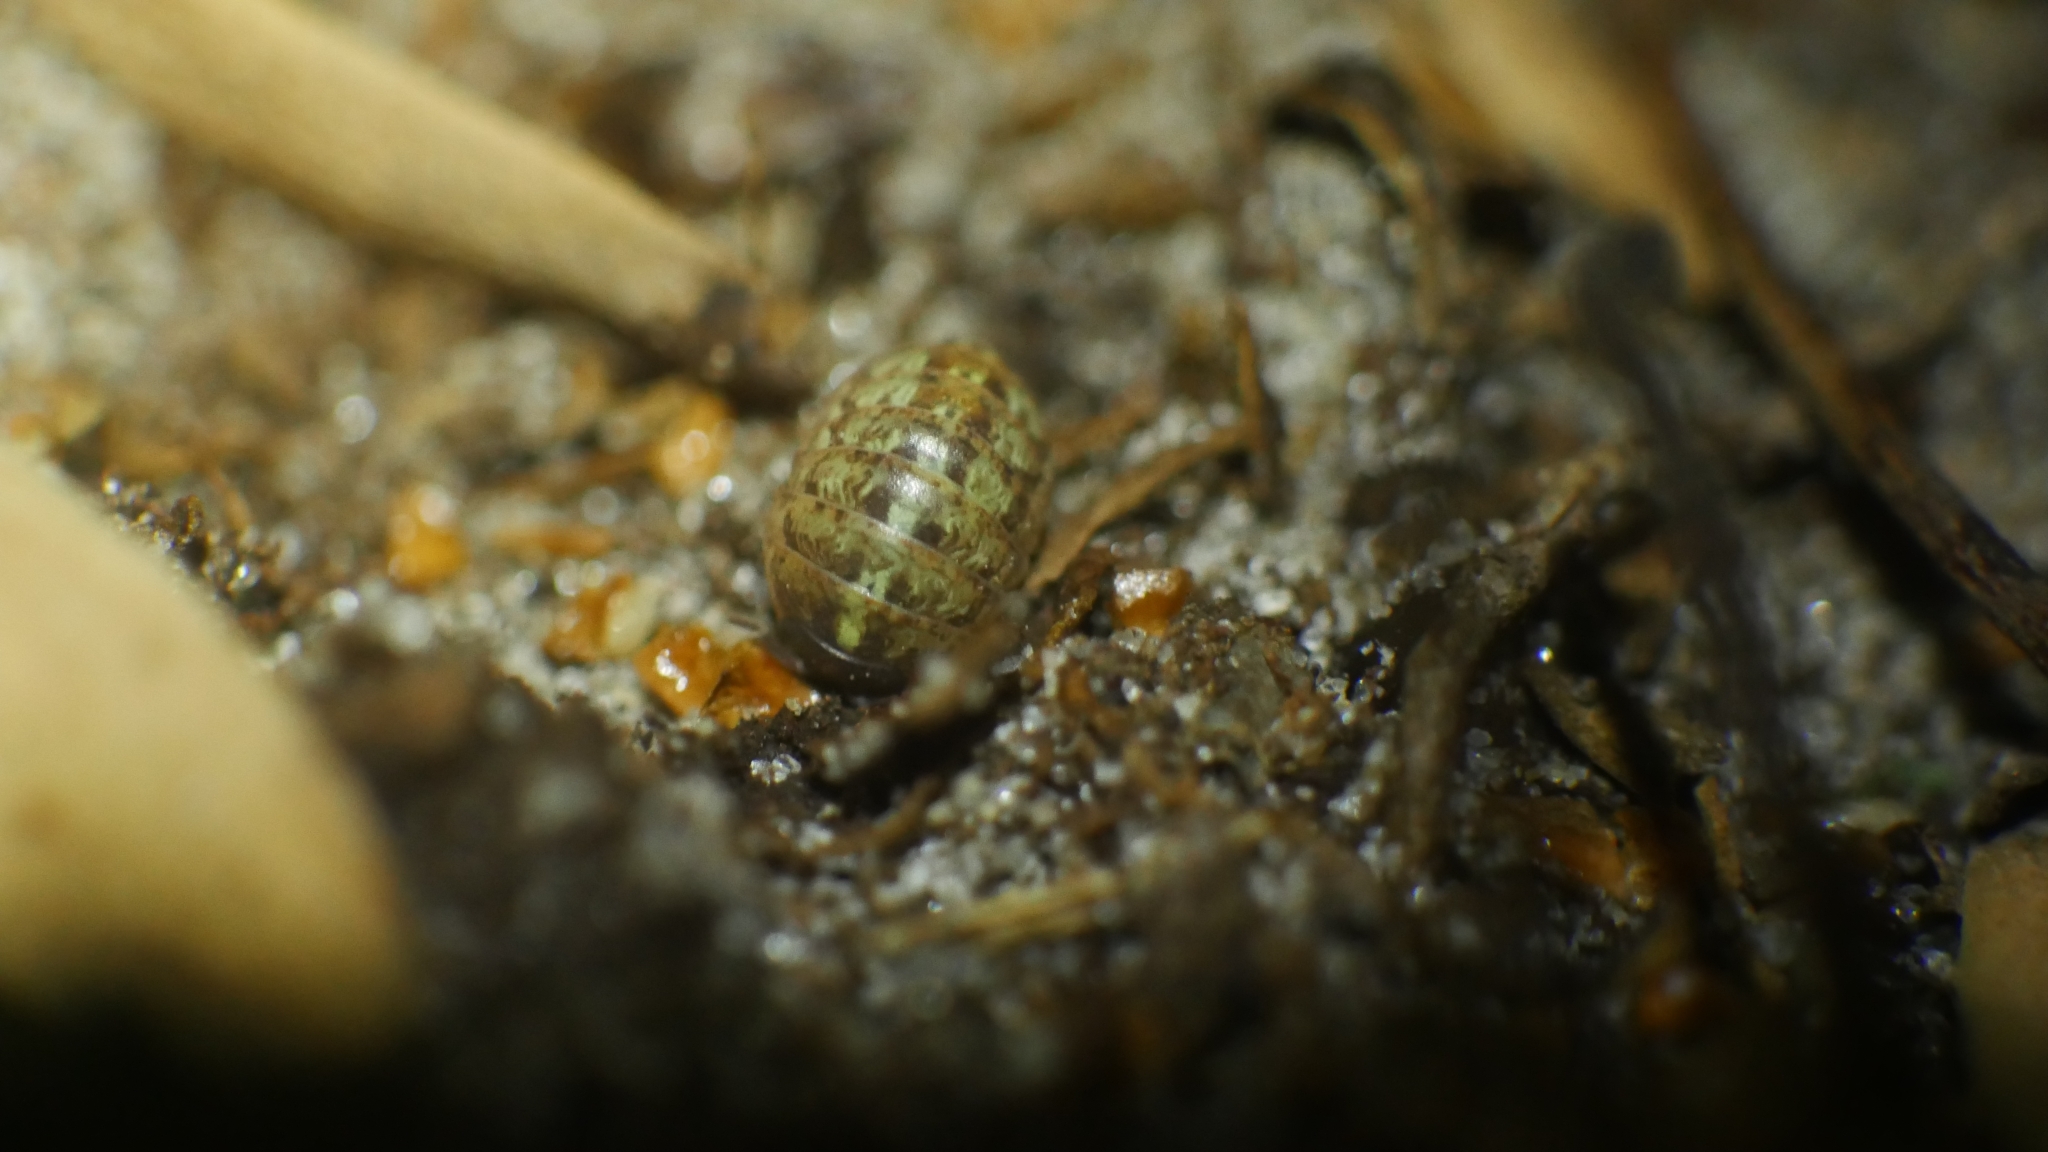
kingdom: Animalia
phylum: Arthropoda
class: Malacostraca
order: Isopoda
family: Armadillidiidae
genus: Armadillidium
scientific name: Armadillidium vulgare
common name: Common pill woodlouse
